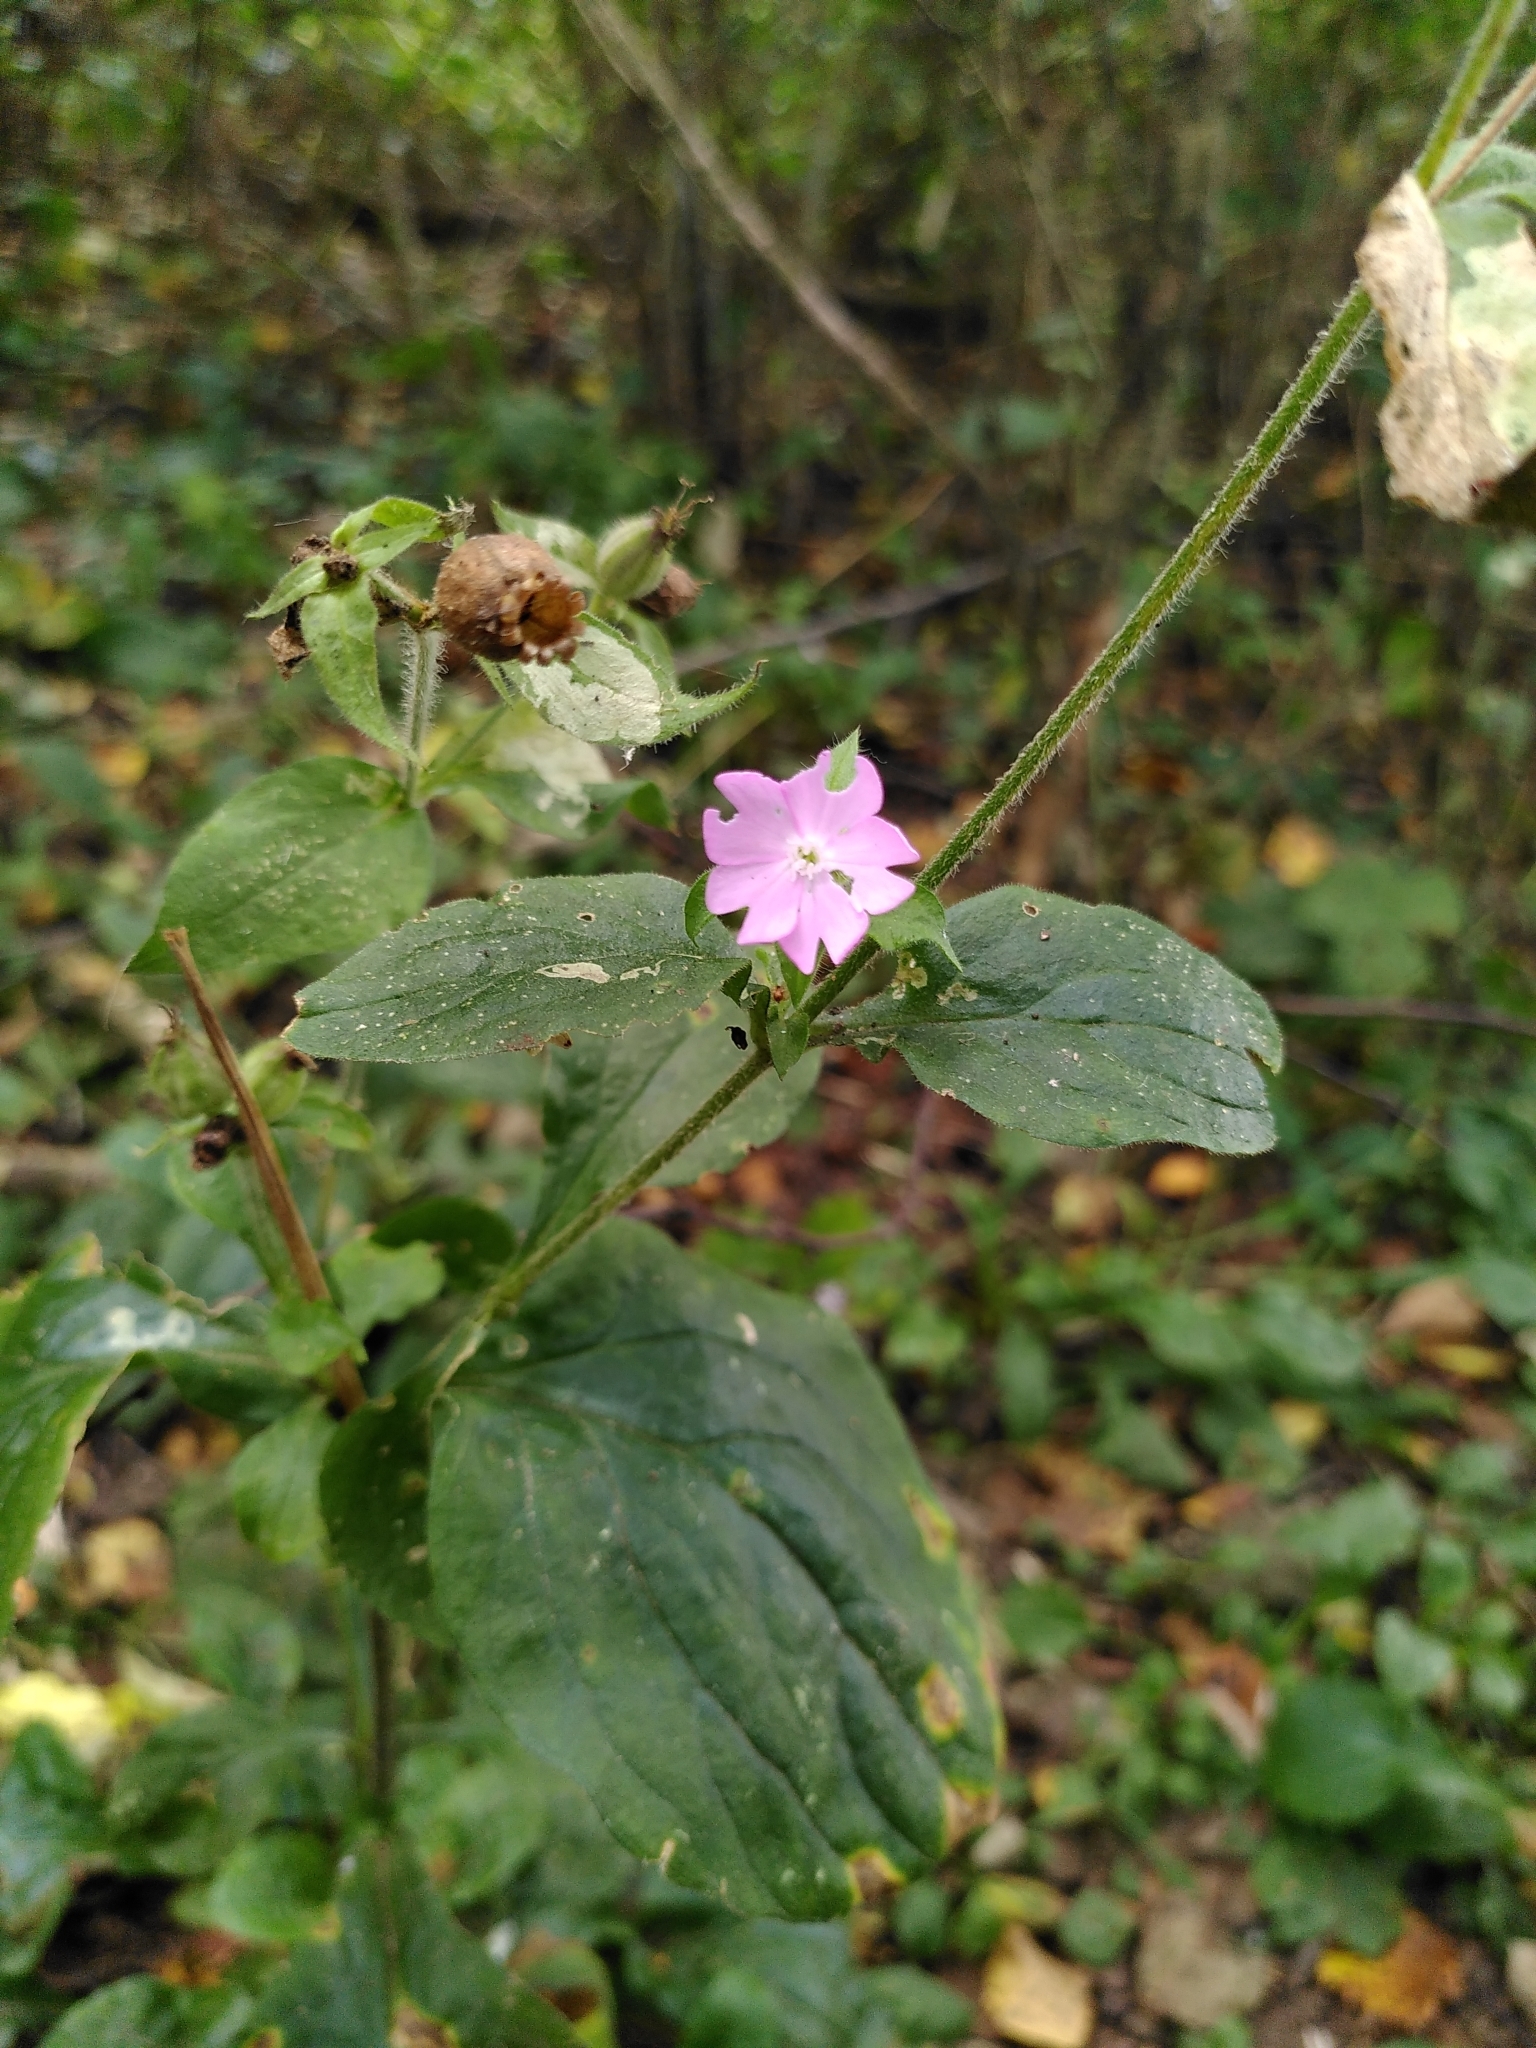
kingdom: Plantae
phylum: Tracheophyta
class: Magnoliopsida
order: Caryophyllales
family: Caryophyllaceae
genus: Silene
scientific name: Silene dioica
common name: Red campion
